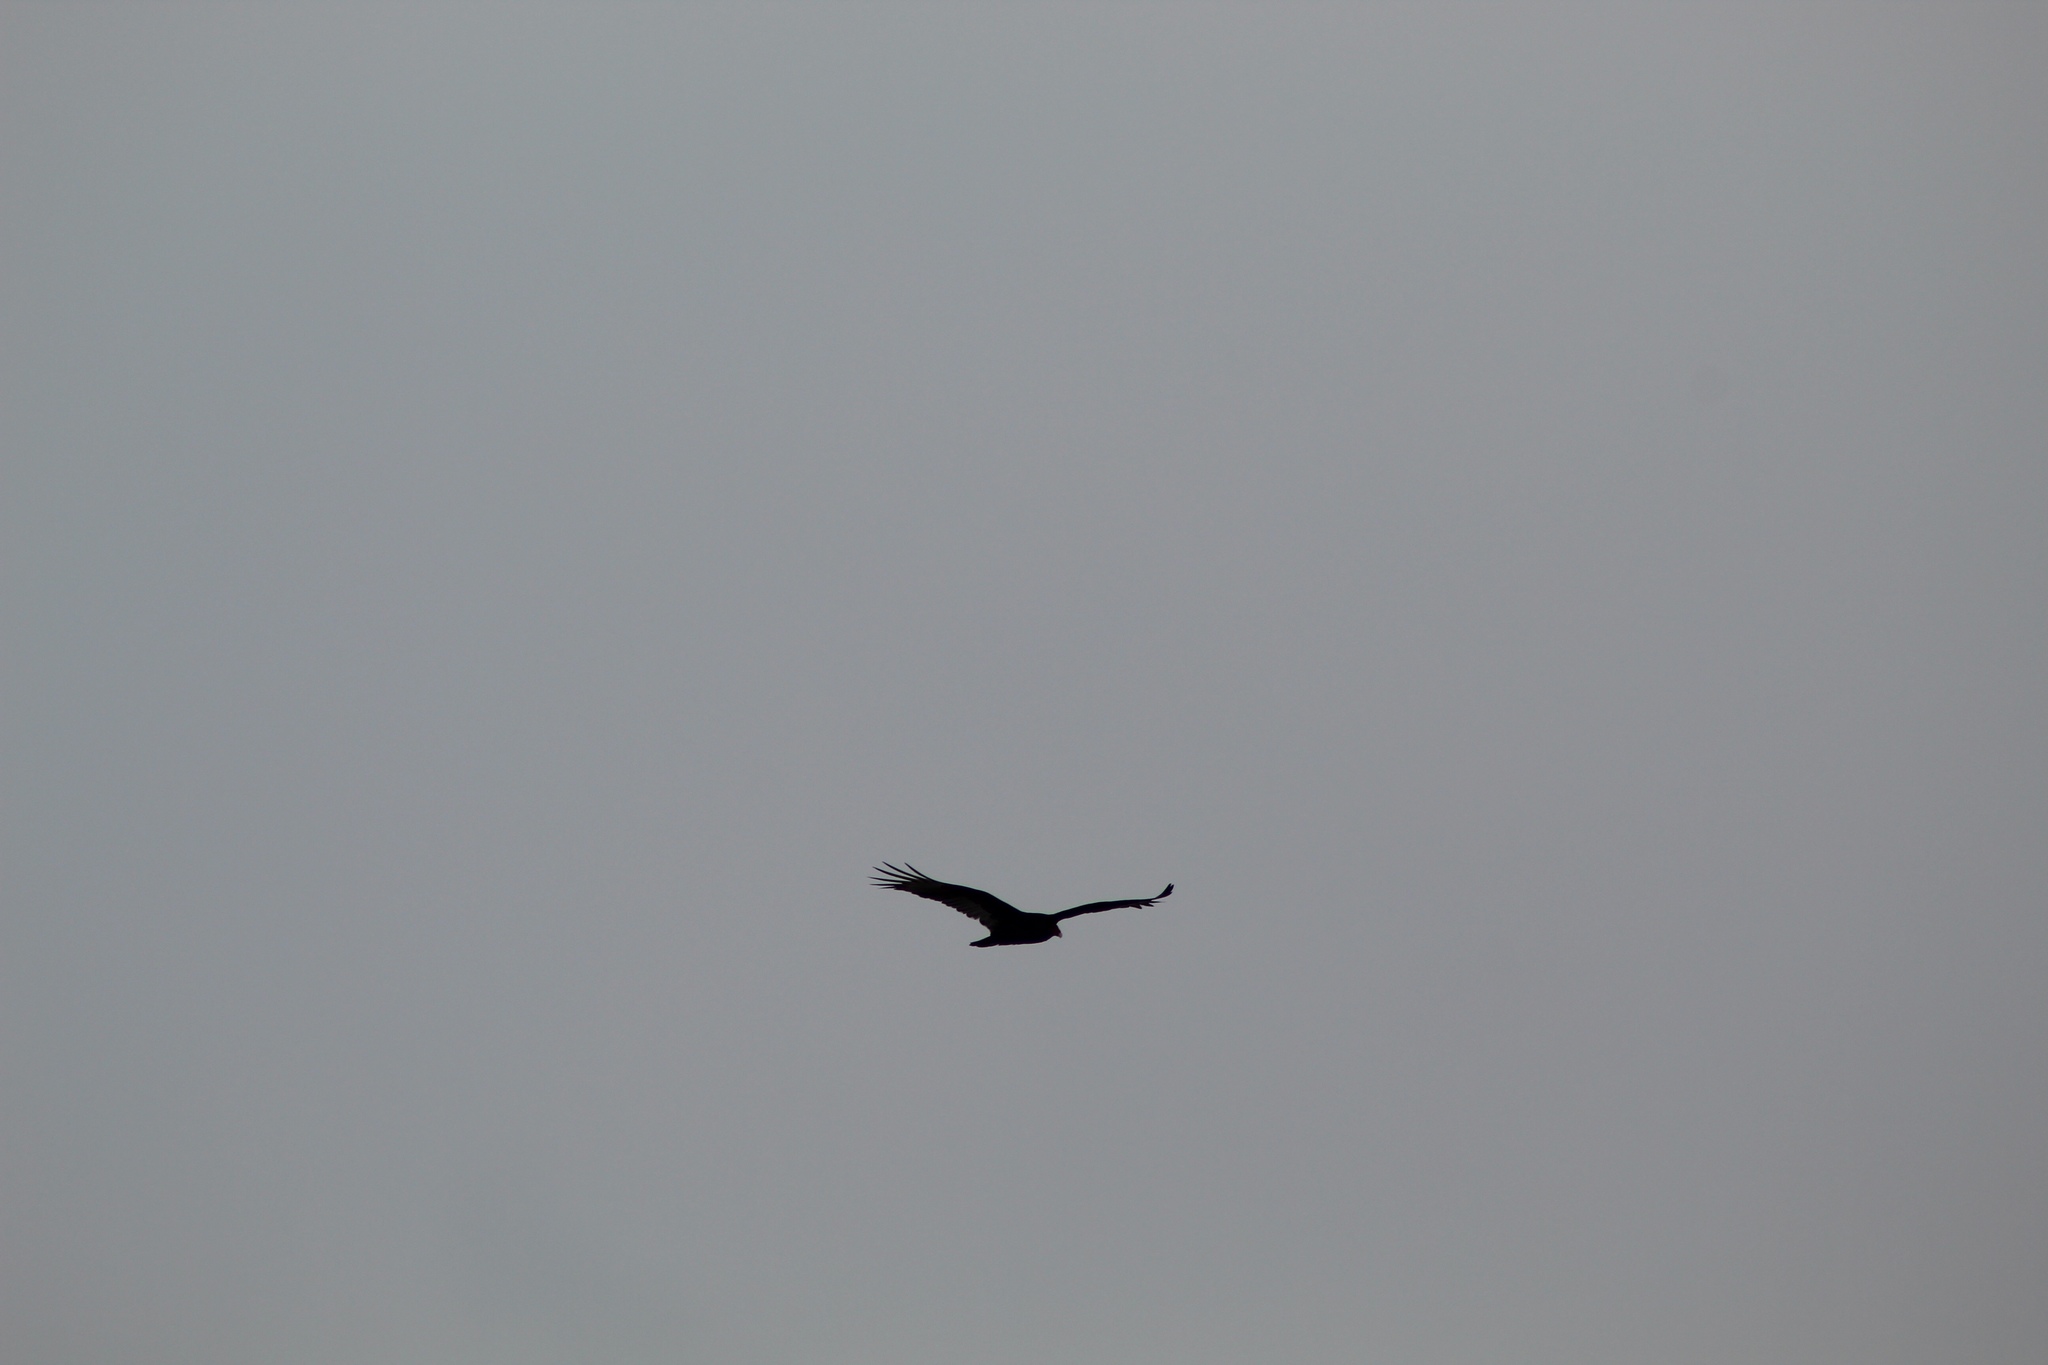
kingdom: Animalia
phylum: Chordata
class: Aves
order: Accipitriformes
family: Cathartidae
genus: Cathartes
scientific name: Cathartes aura
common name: Turkey vulture
